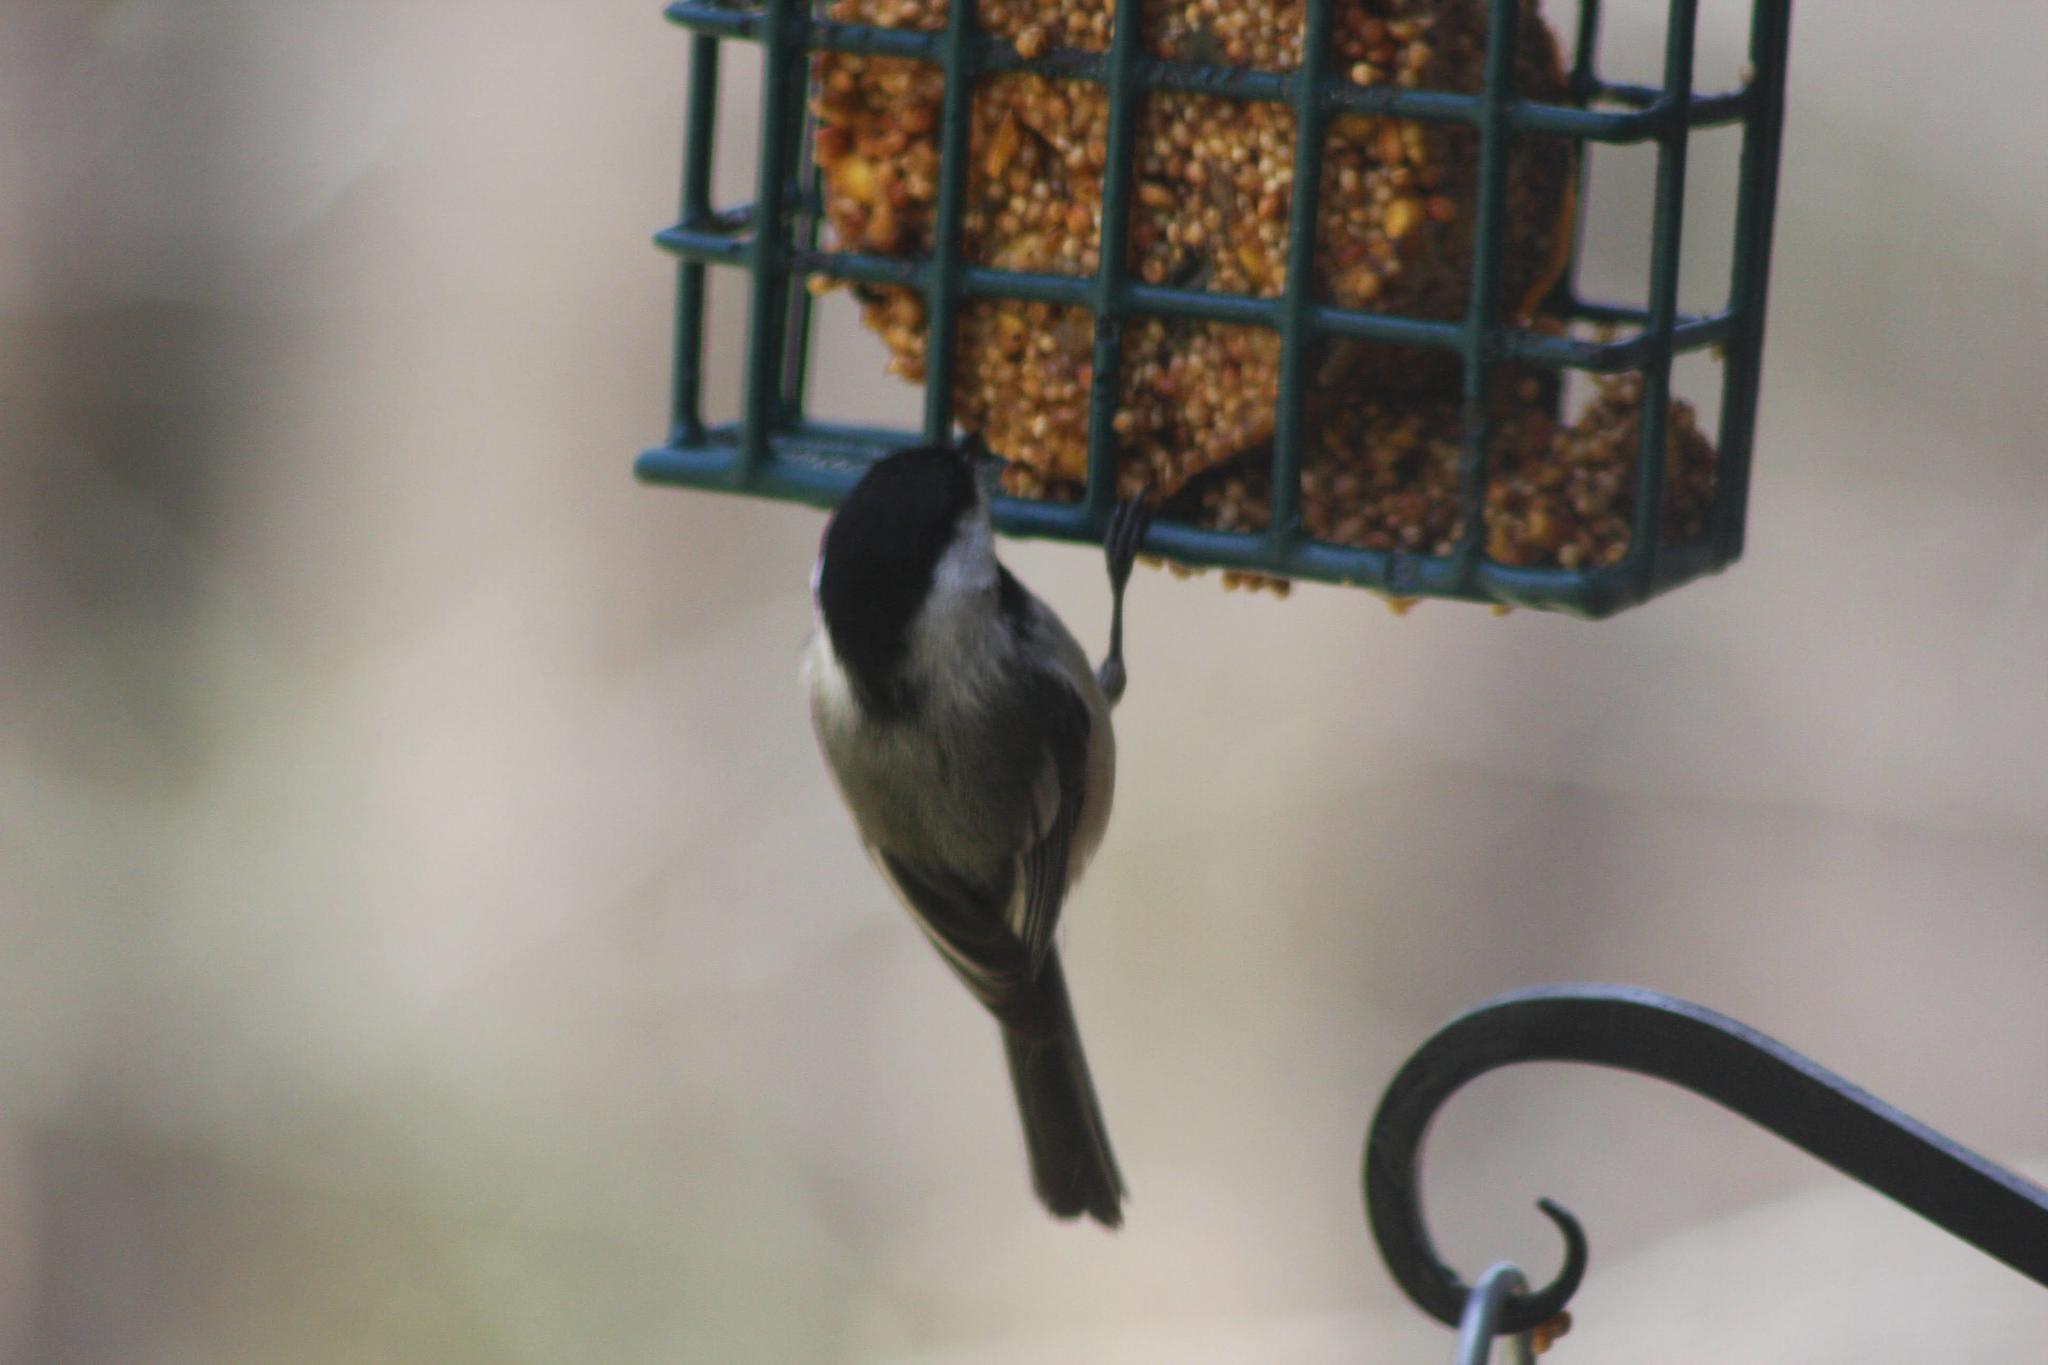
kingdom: Animalia
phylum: Chordata
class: Aves
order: Passeriformes
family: Paridae
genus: Poecile
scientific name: Poecile atricapillus
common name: Black-capped chickadee
